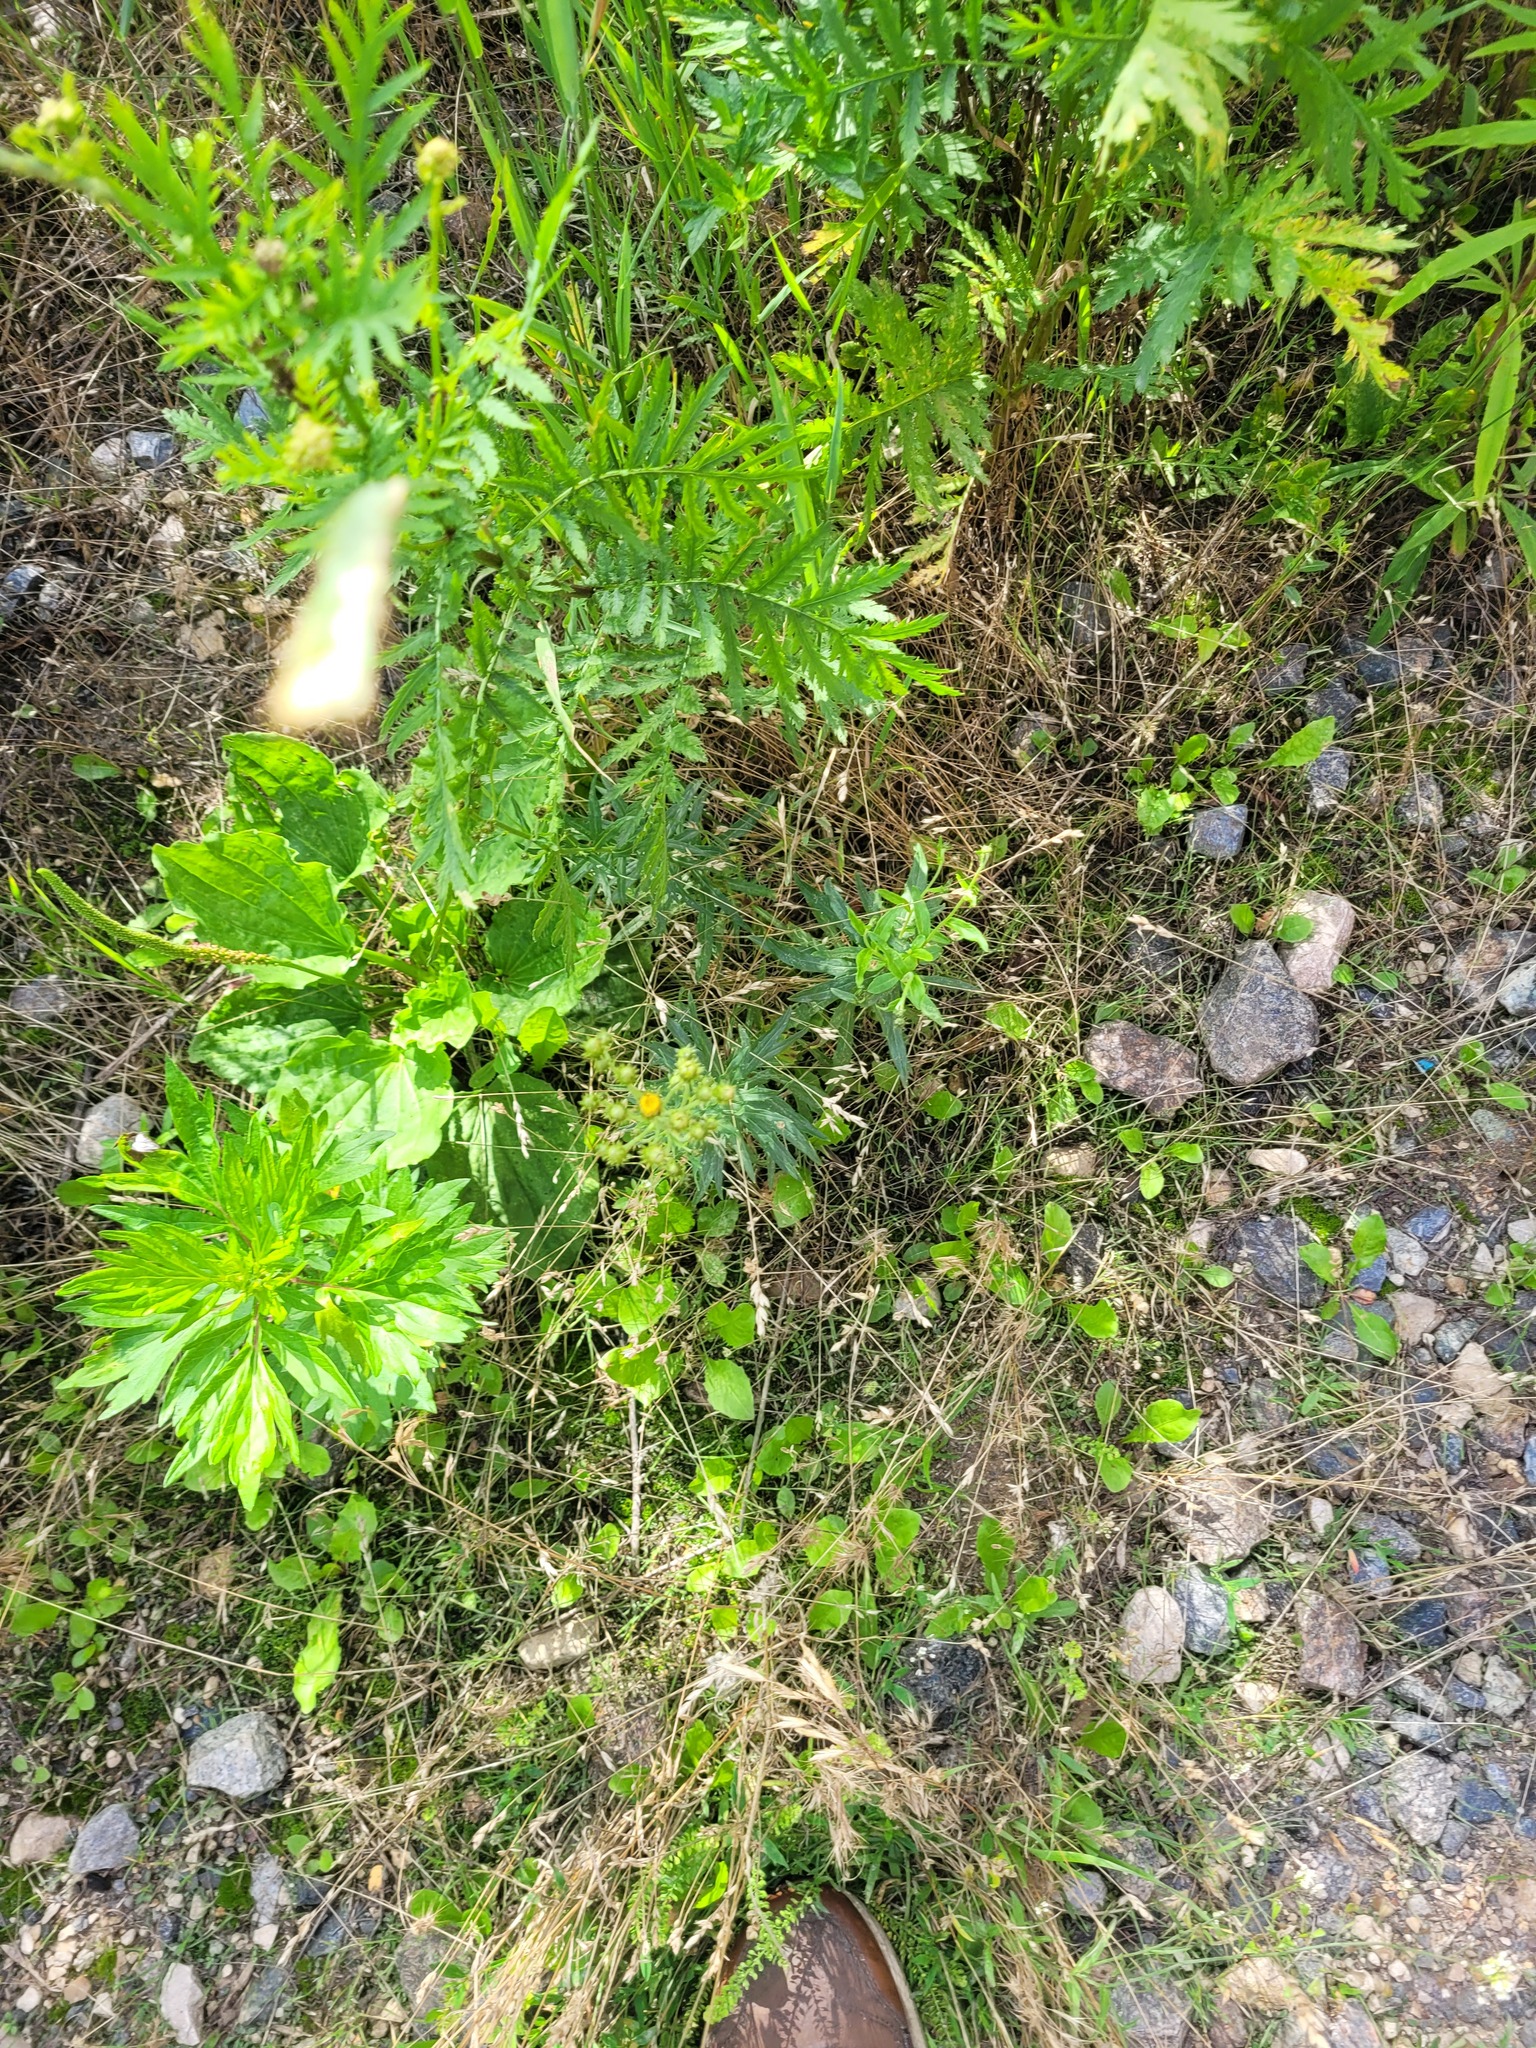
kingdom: Plantae
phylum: Tracheophyta
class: Magnoliopsida
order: Asterales
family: Asteraceae
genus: Hieracium
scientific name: Hieracium umbellatum
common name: Northern hawkweed
